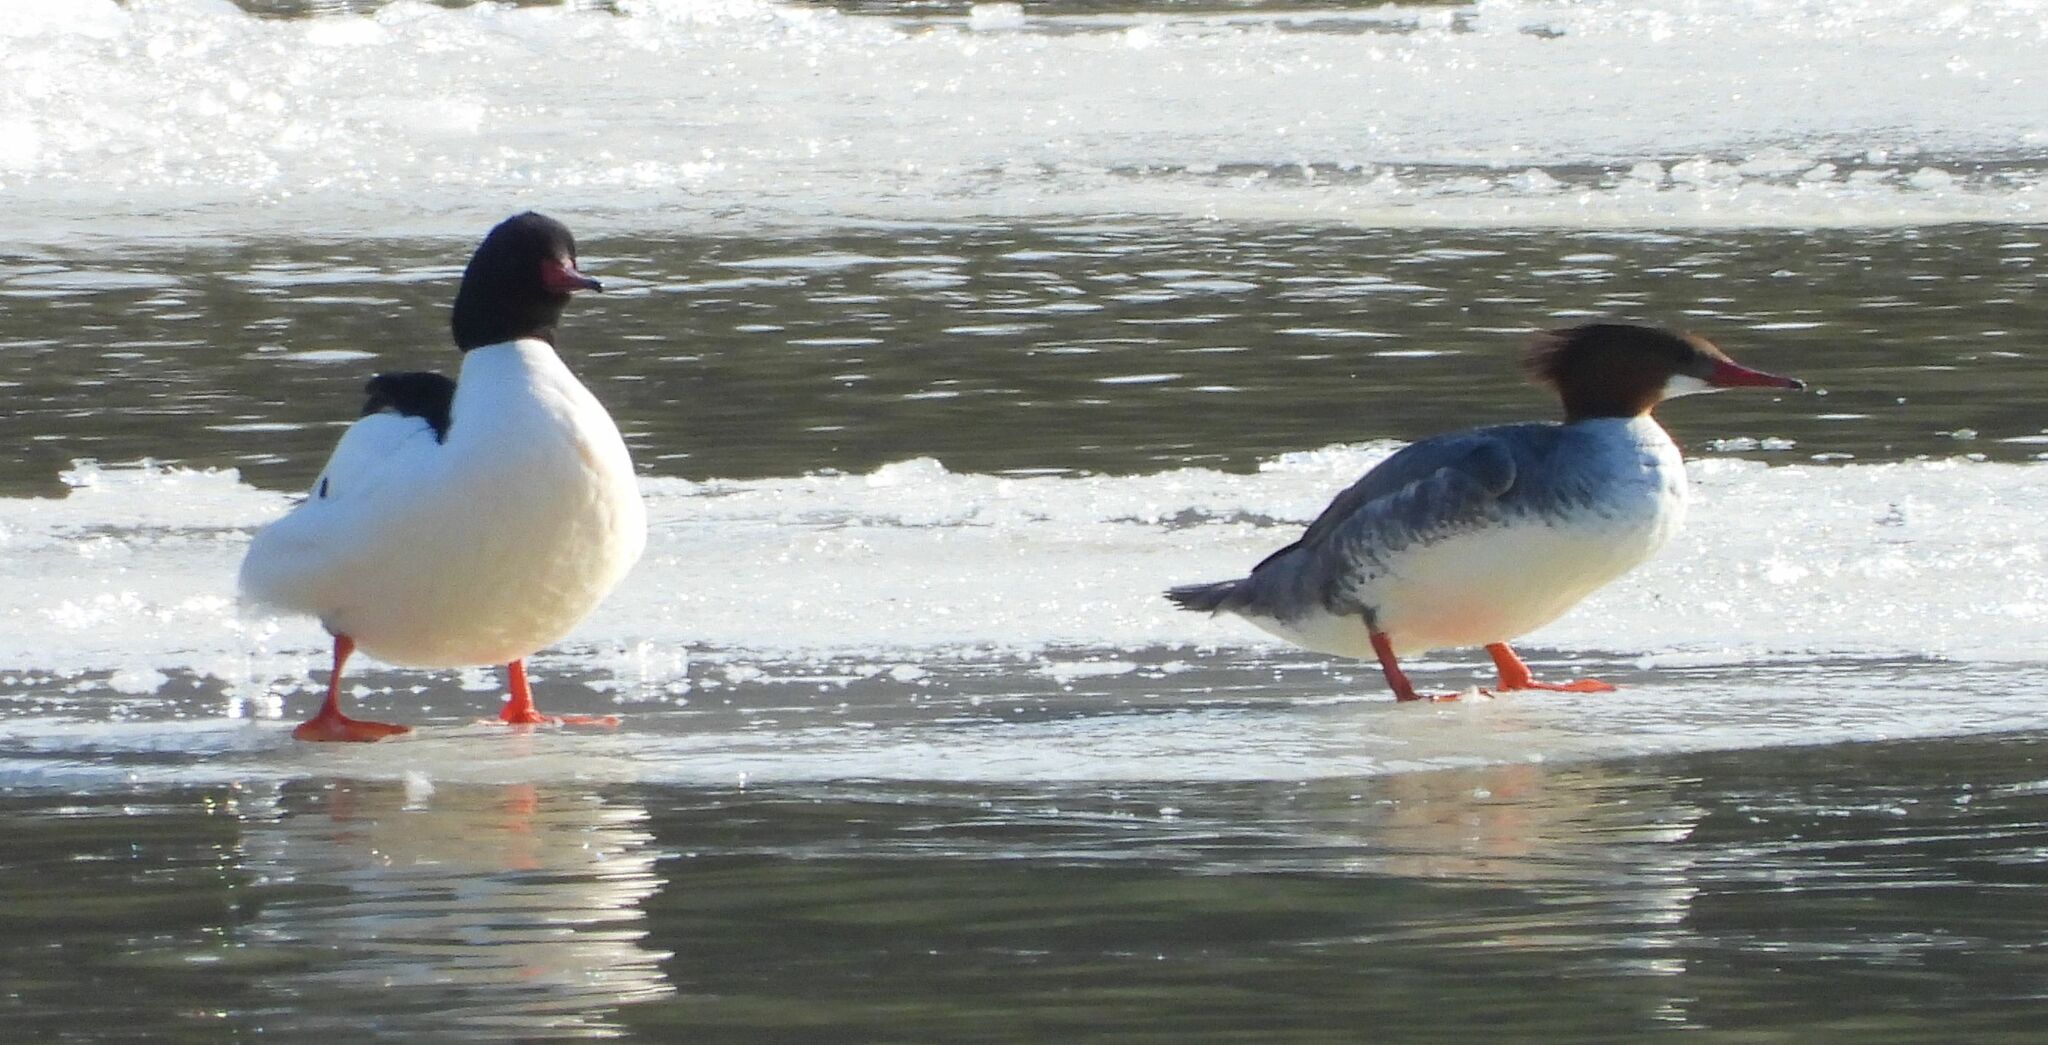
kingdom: Animalia
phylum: Chordata
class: Aves
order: Anseriformes
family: Anatidae
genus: Mergus
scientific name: Mergus merganser
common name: Common merganser
